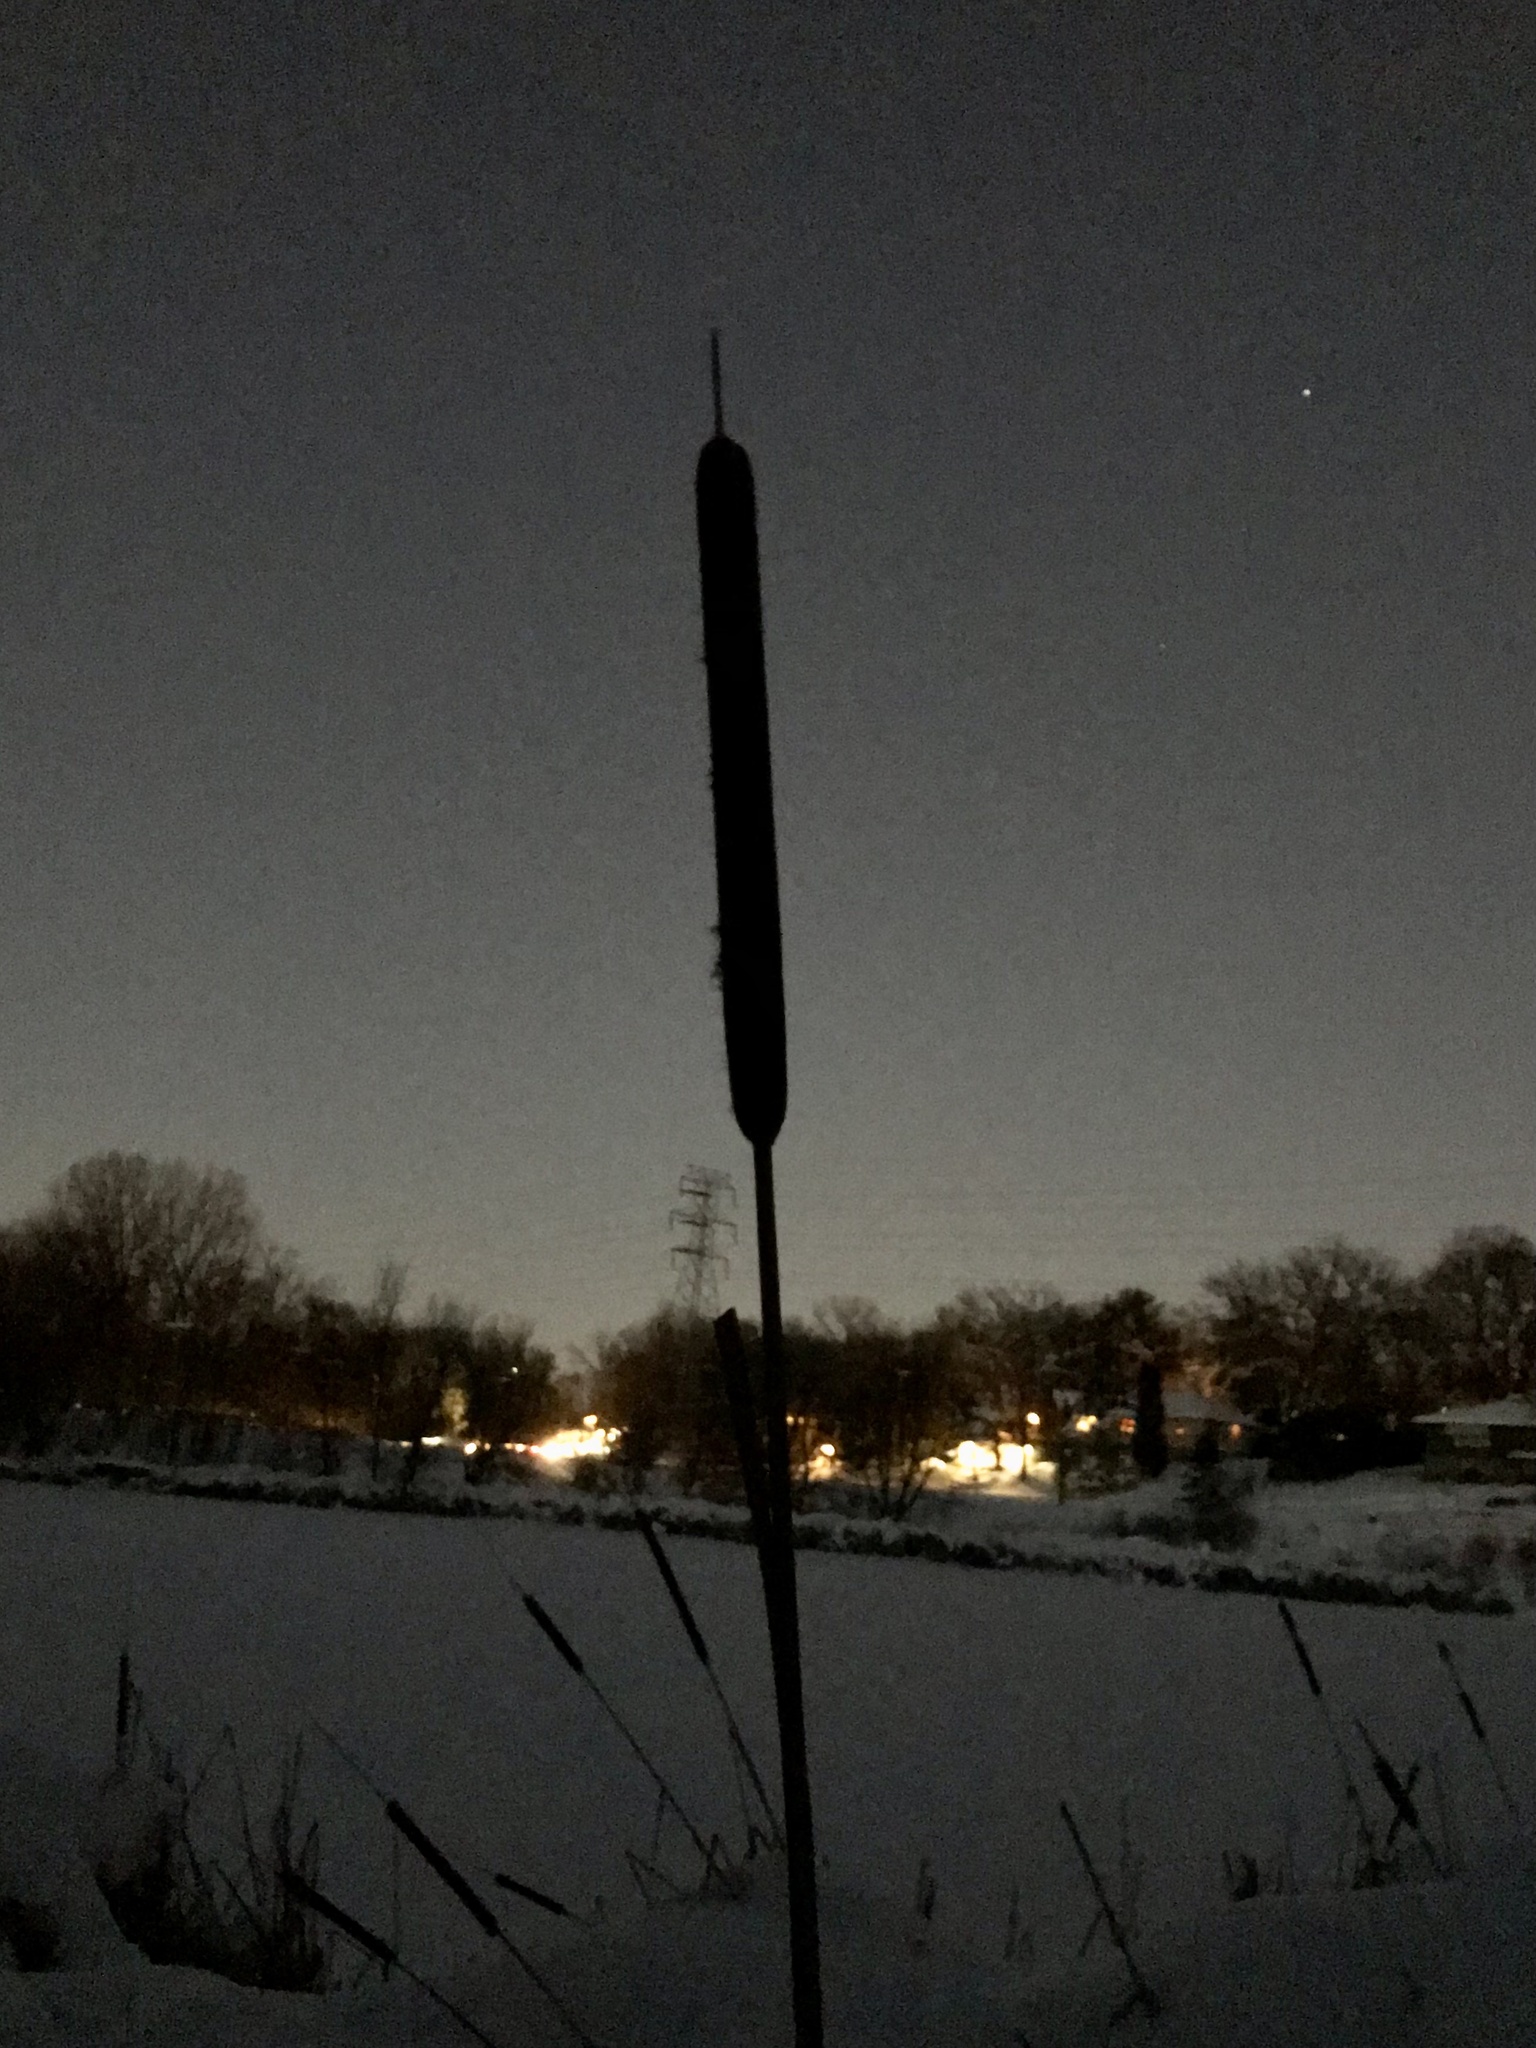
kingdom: Plantae
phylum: Tracheophyta
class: Liliopsida
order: Poales
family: Typhaceae
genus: Typha
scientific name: Typha angustifolia
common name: Lesser bulrush
